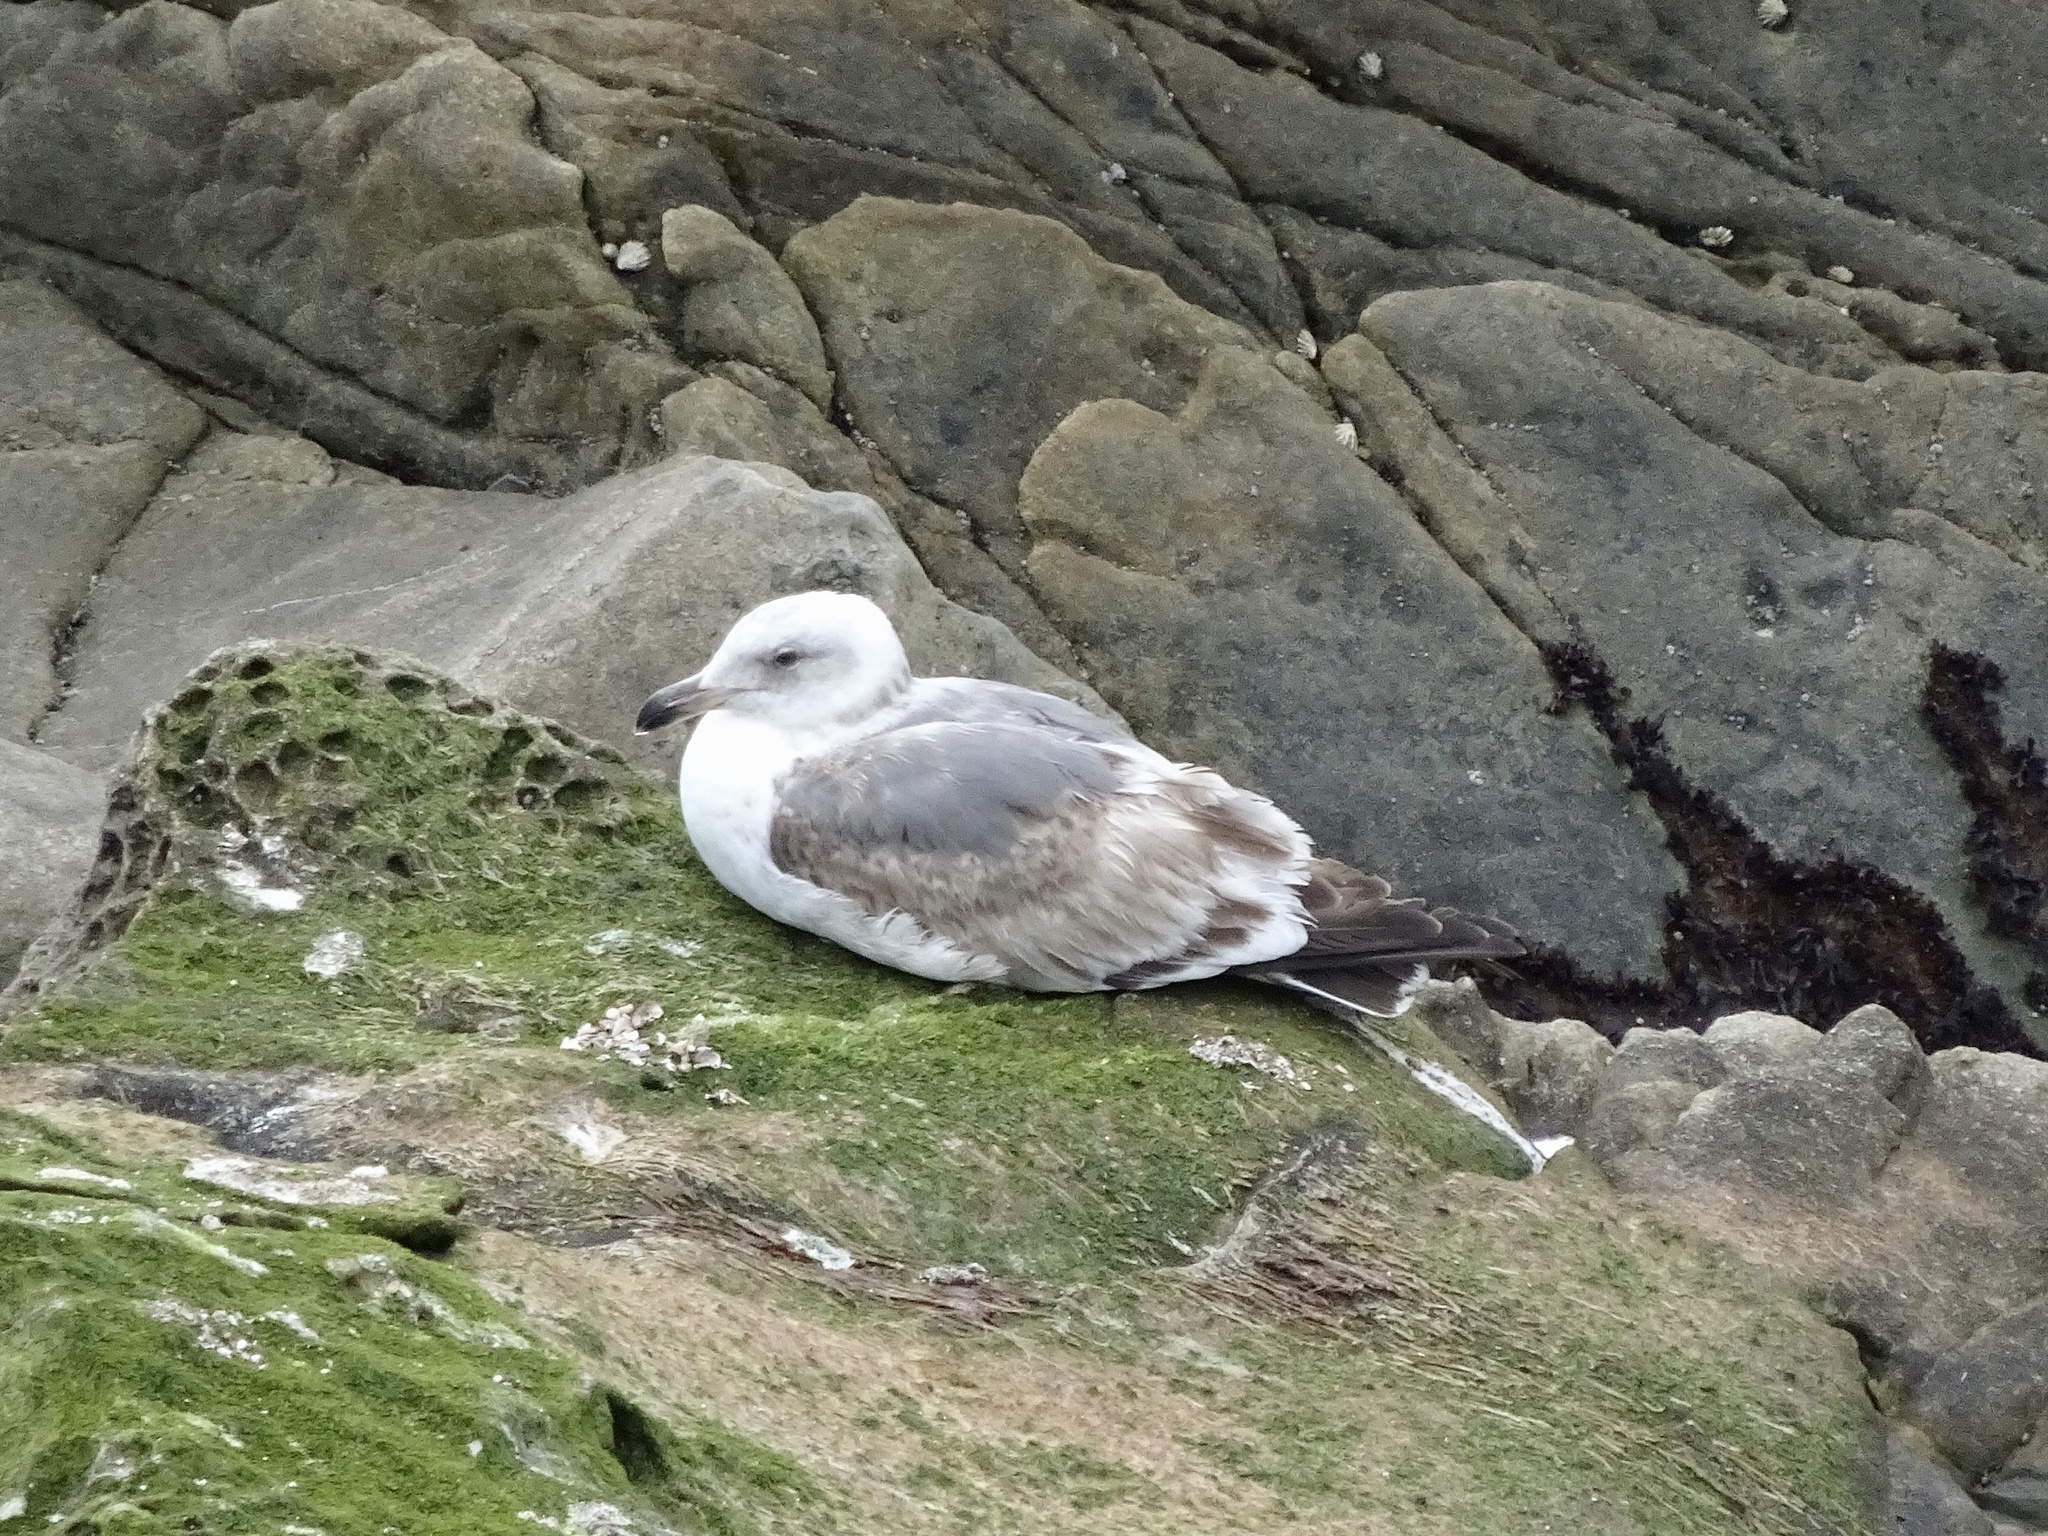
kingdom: Animalia
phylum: Chordata
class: Aves
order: Charadriiformes
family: Laridae
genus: Larus
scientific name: Larus occidentalis
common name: Western gull
